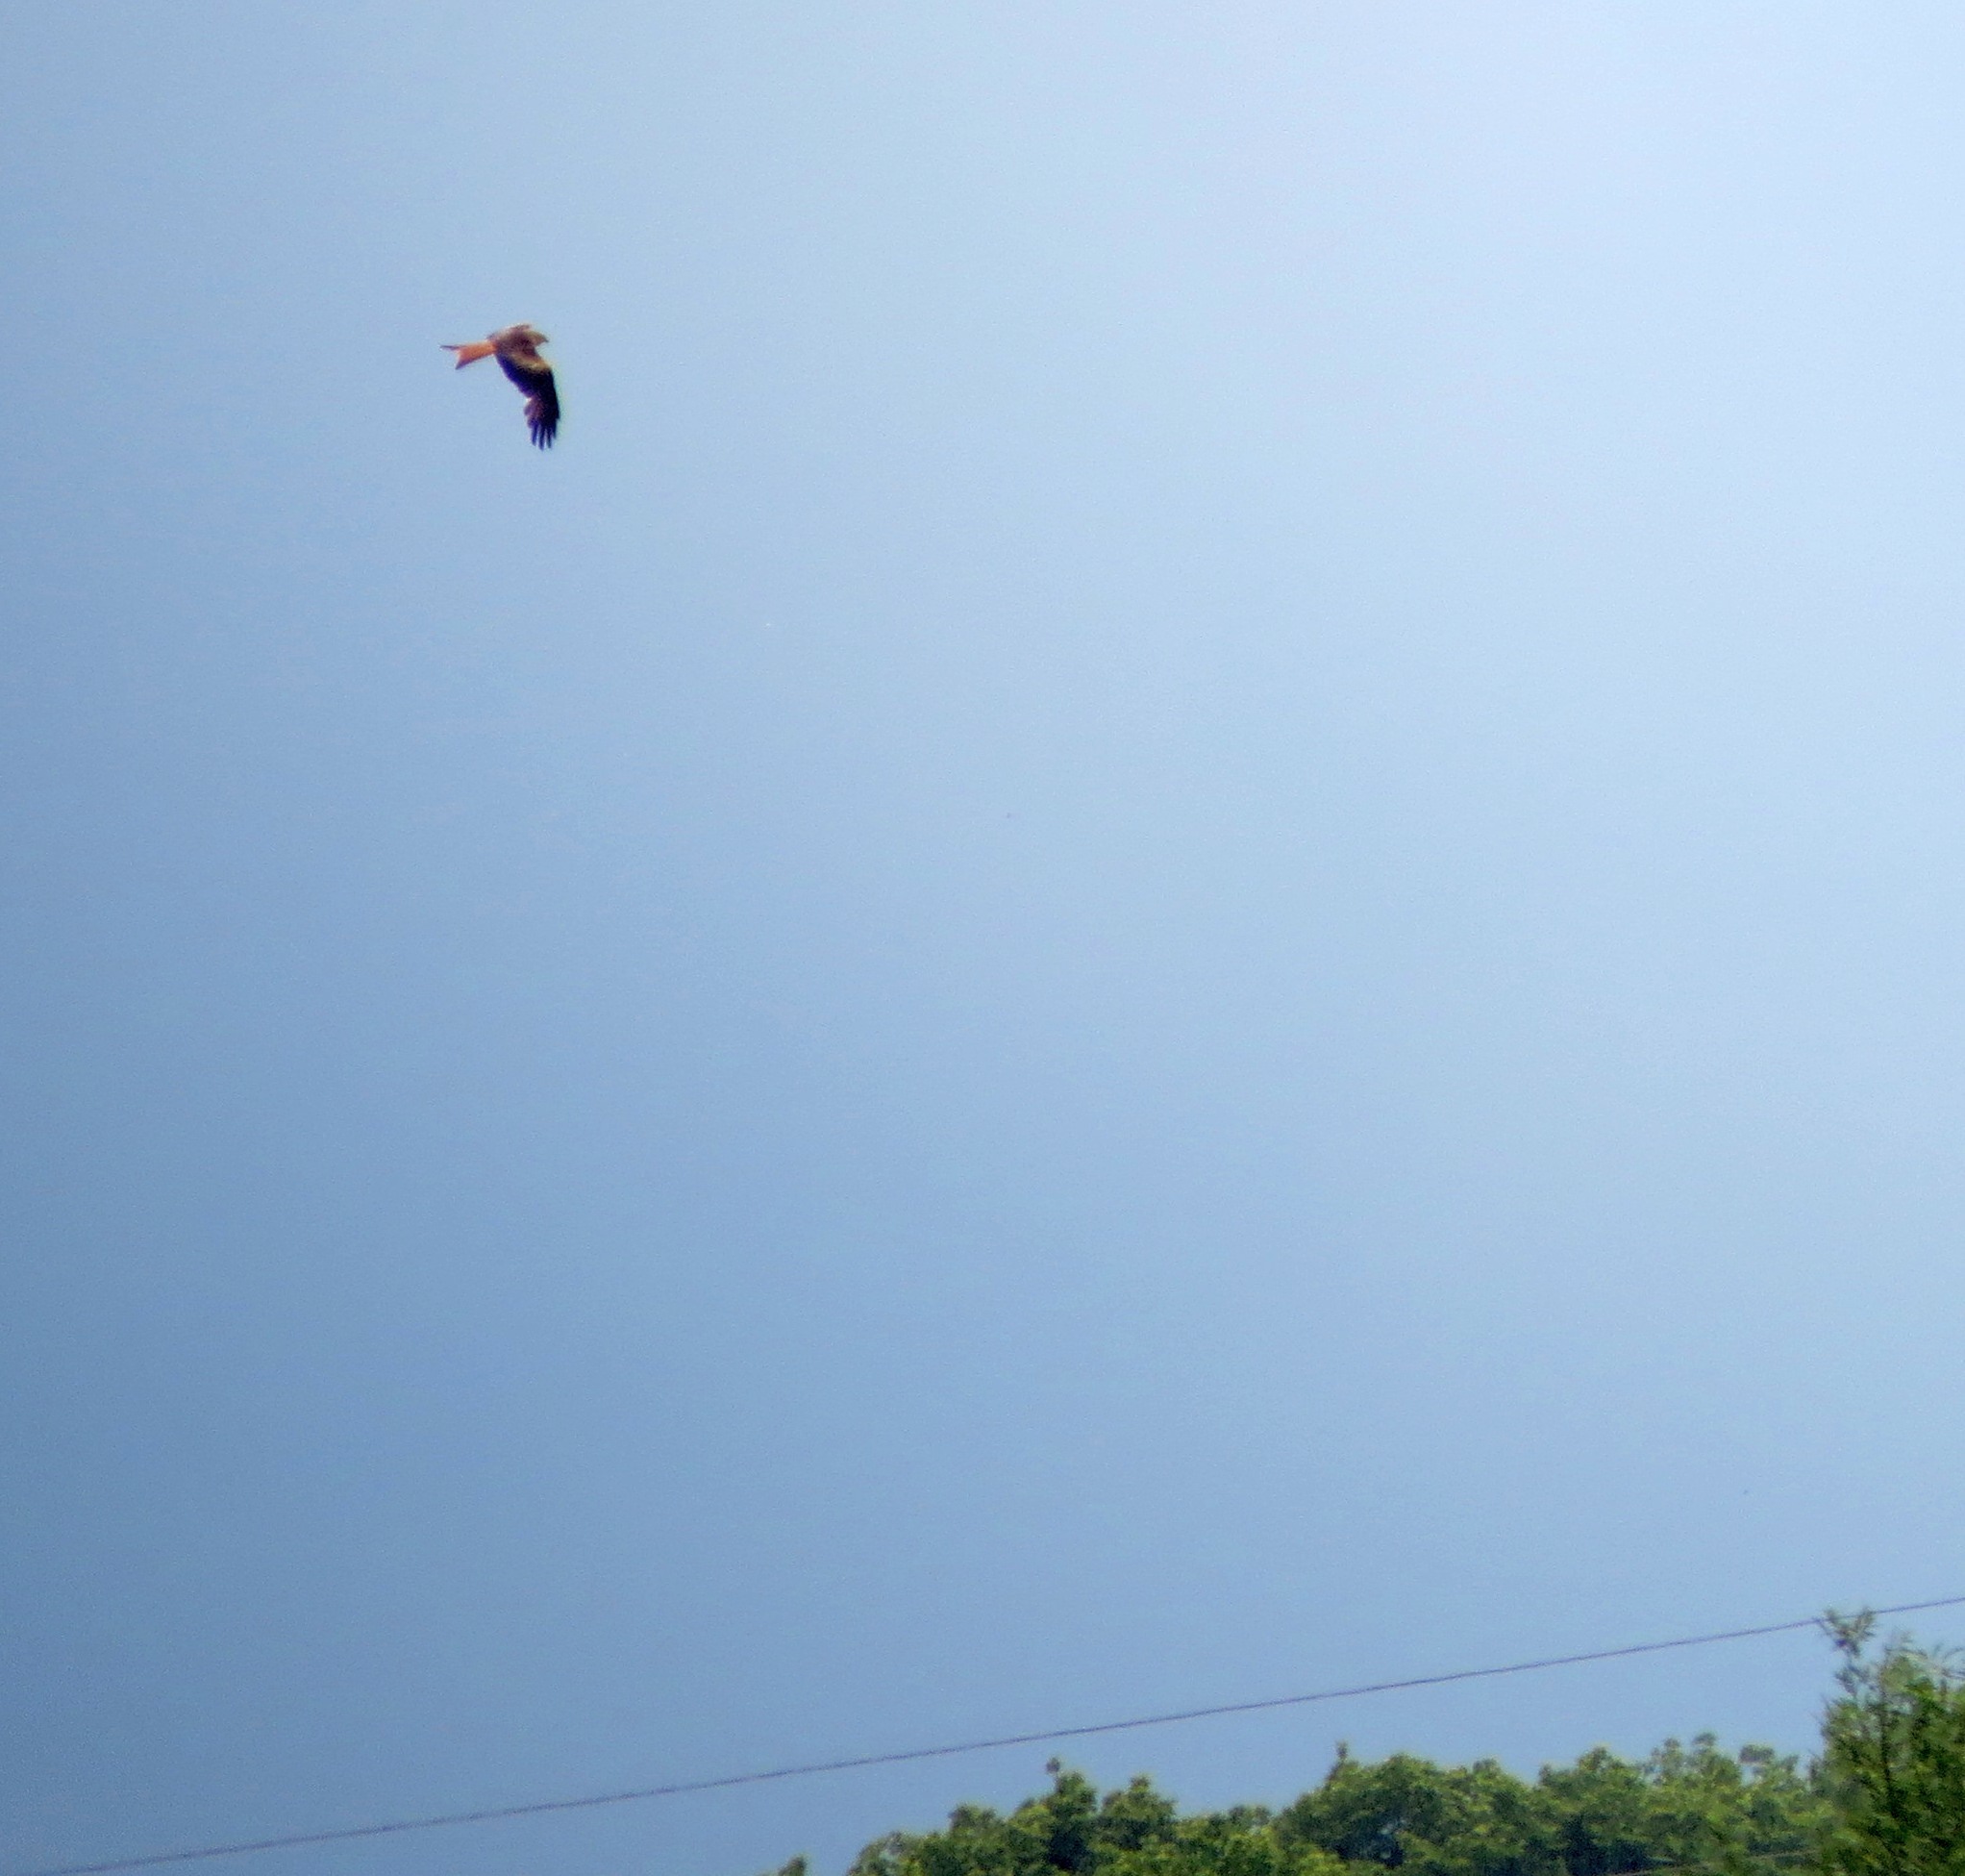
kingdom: Animalia
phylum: Chordata
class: Aves
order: Accipitriformes
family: Accipitridae
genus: Milvus
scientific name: Milvus milvus
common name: Red kite
